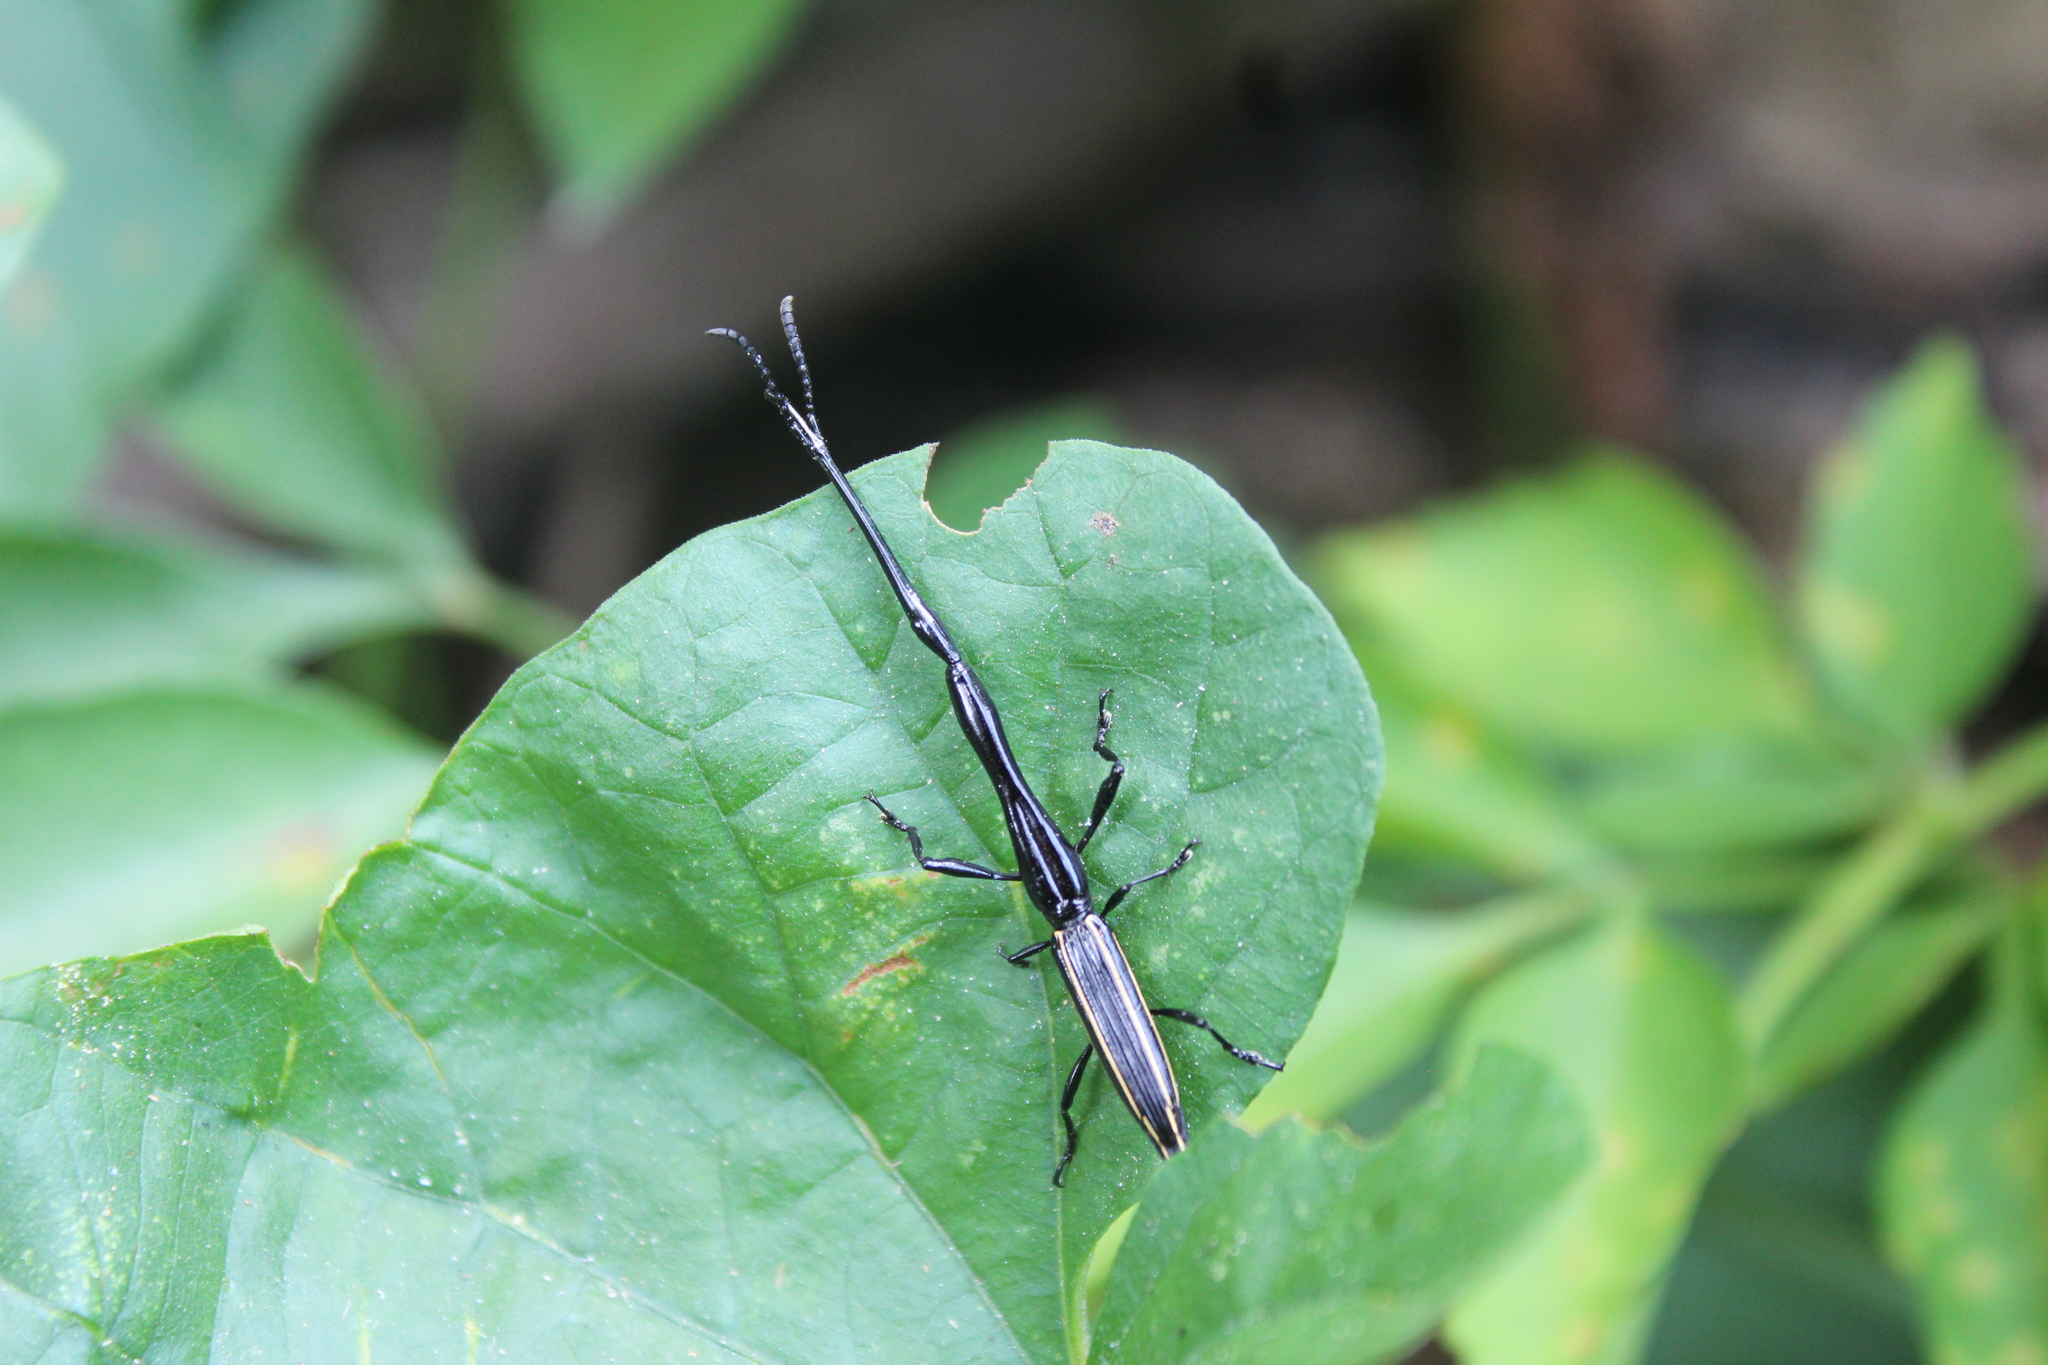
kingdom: Animalia
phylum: Arthropoda
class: Insecta
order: Coleoptera
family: Brentidae
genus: Brentus
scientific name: Brentus anchorago
